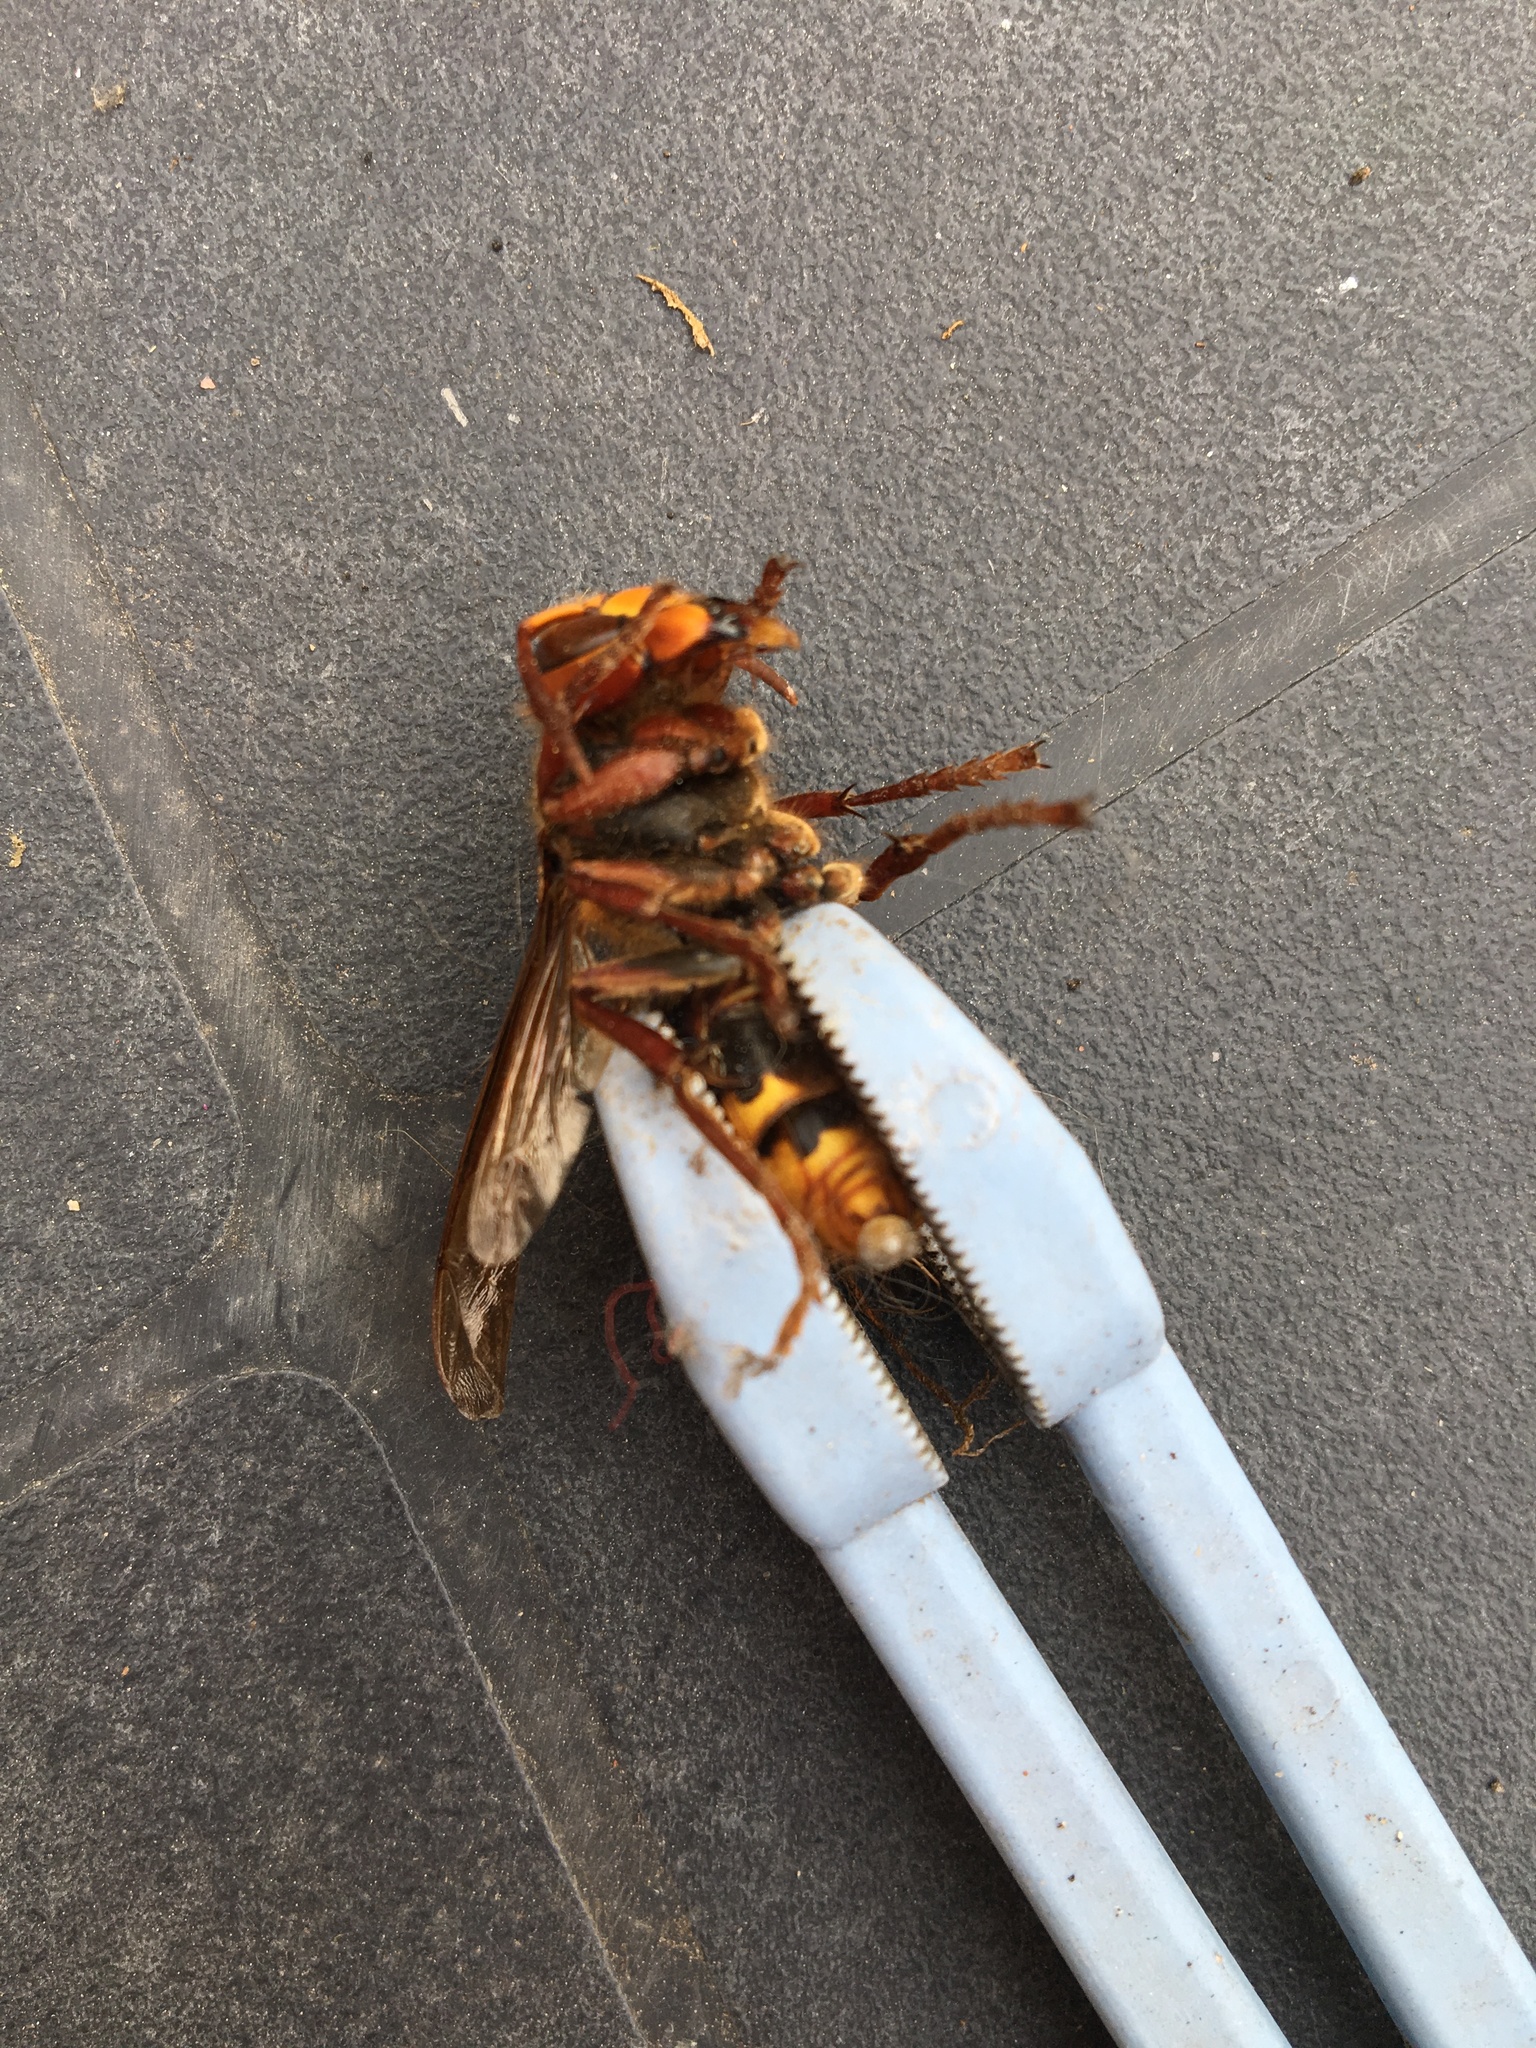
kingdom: Animalia
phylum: Arthropoda
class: Insecta
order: Hymenoptera
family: Vespidae
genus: Vespa
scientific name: Vespa crabro
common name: Hornet
